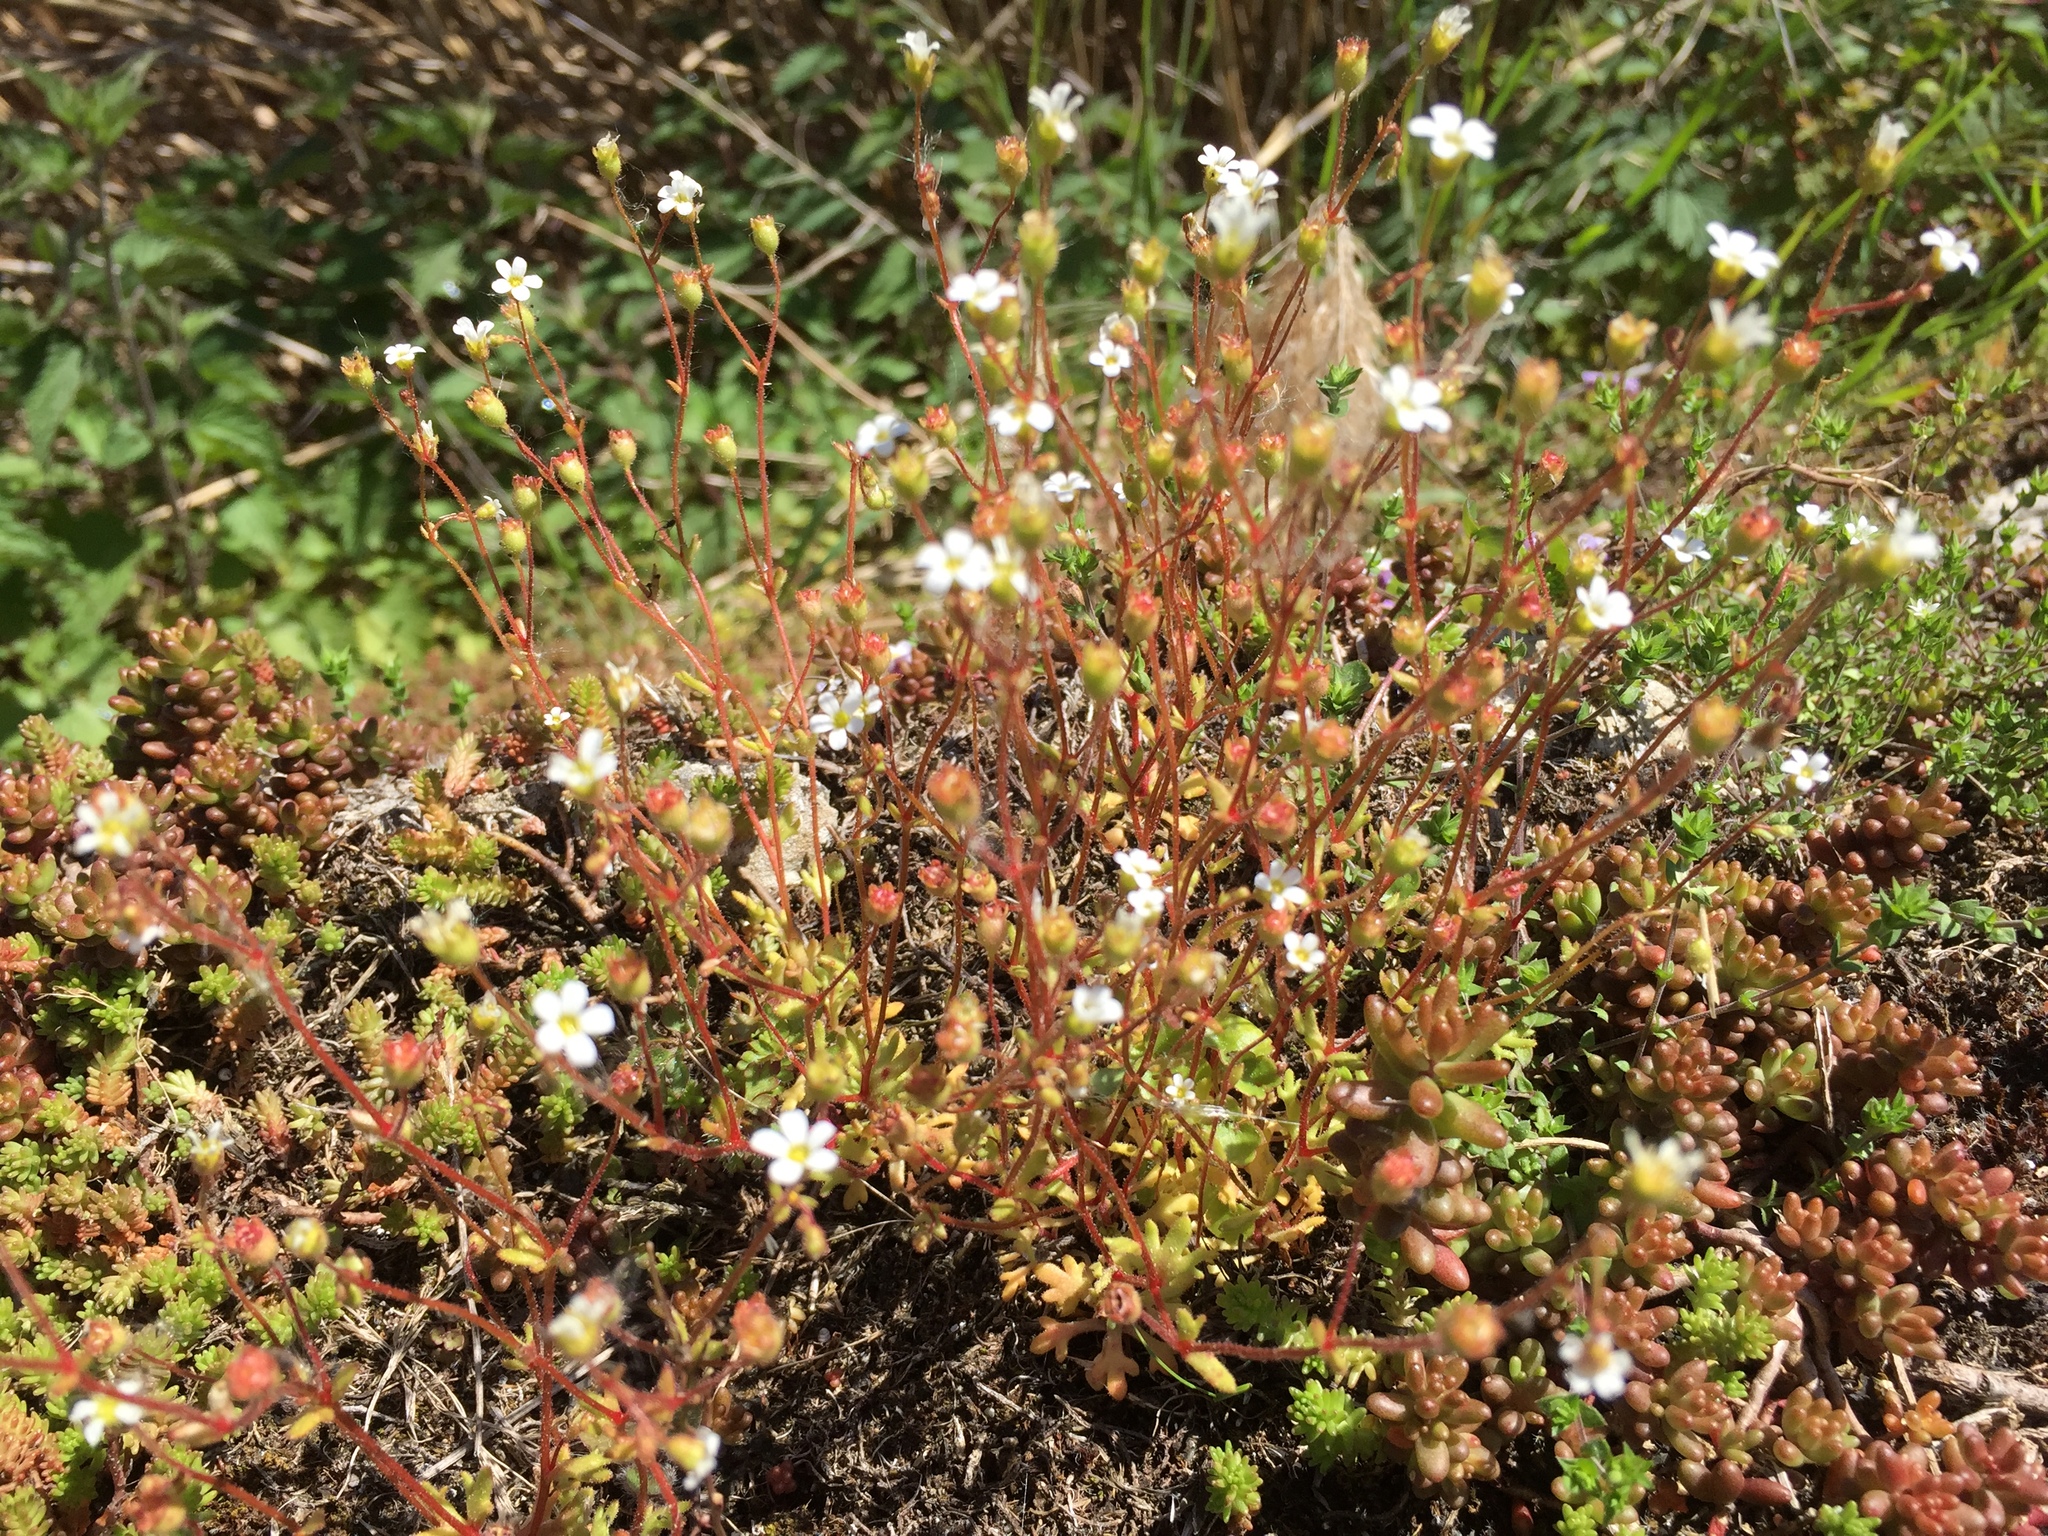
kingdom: Plantae
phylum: Tracheophyta
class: Magnoliopsida
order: Saxifragales
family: Saxifragaceae
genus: Saxifraga
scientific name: Saxifraga tridactylites
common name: Rue-leaved saxifrage
